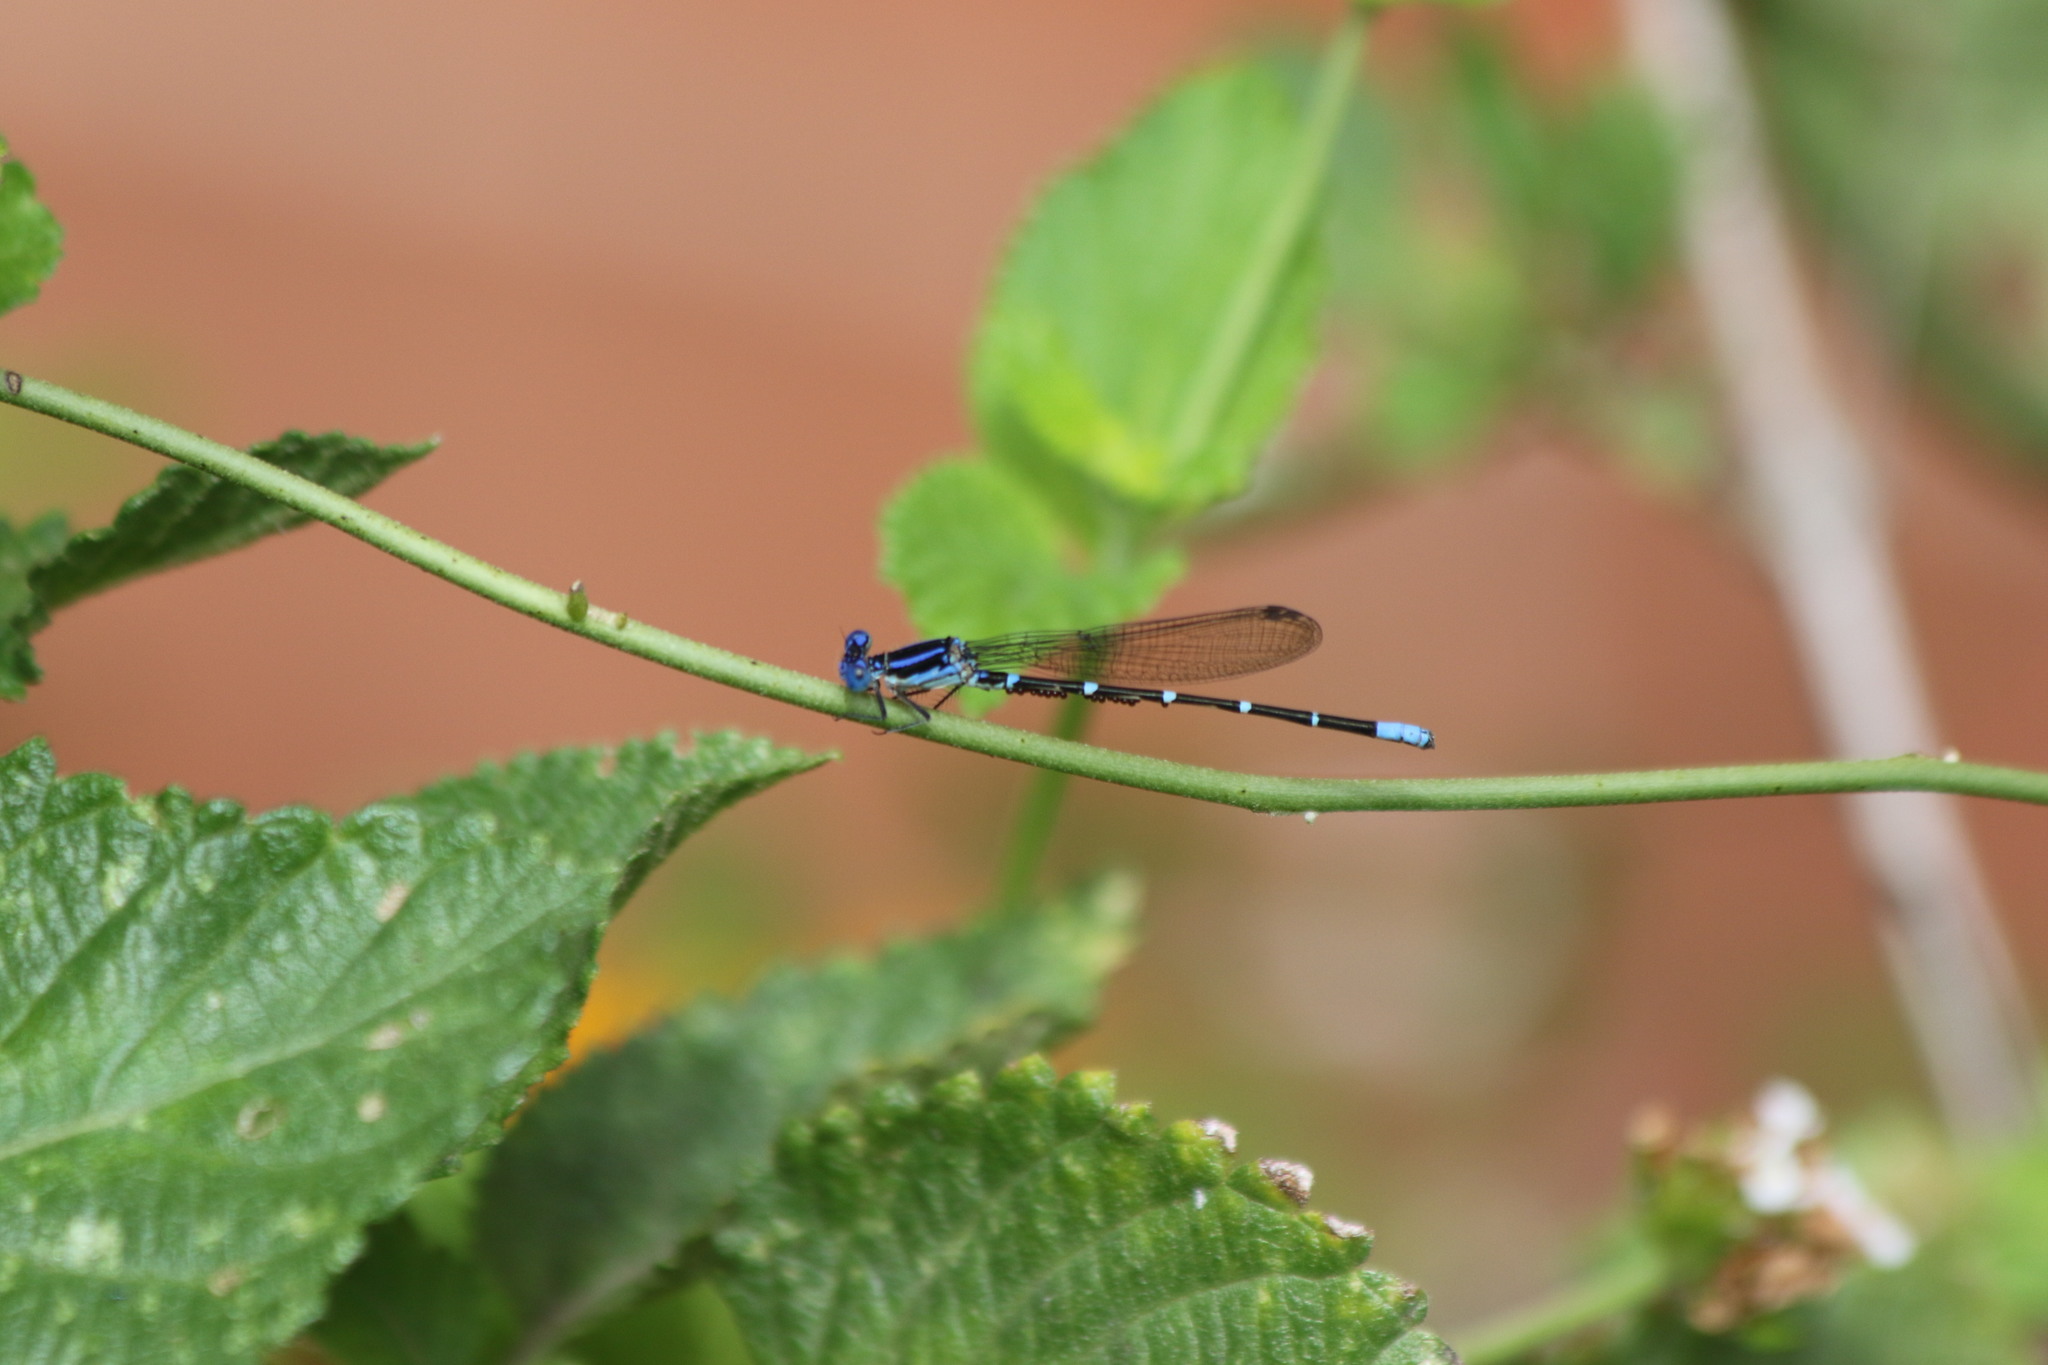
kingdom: Animalia
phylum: Arthropoda
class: Insecta
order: Odonata
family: Coenagrionidae
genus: Argia
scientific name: Argia sedula
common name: Blue-ringed dancer
